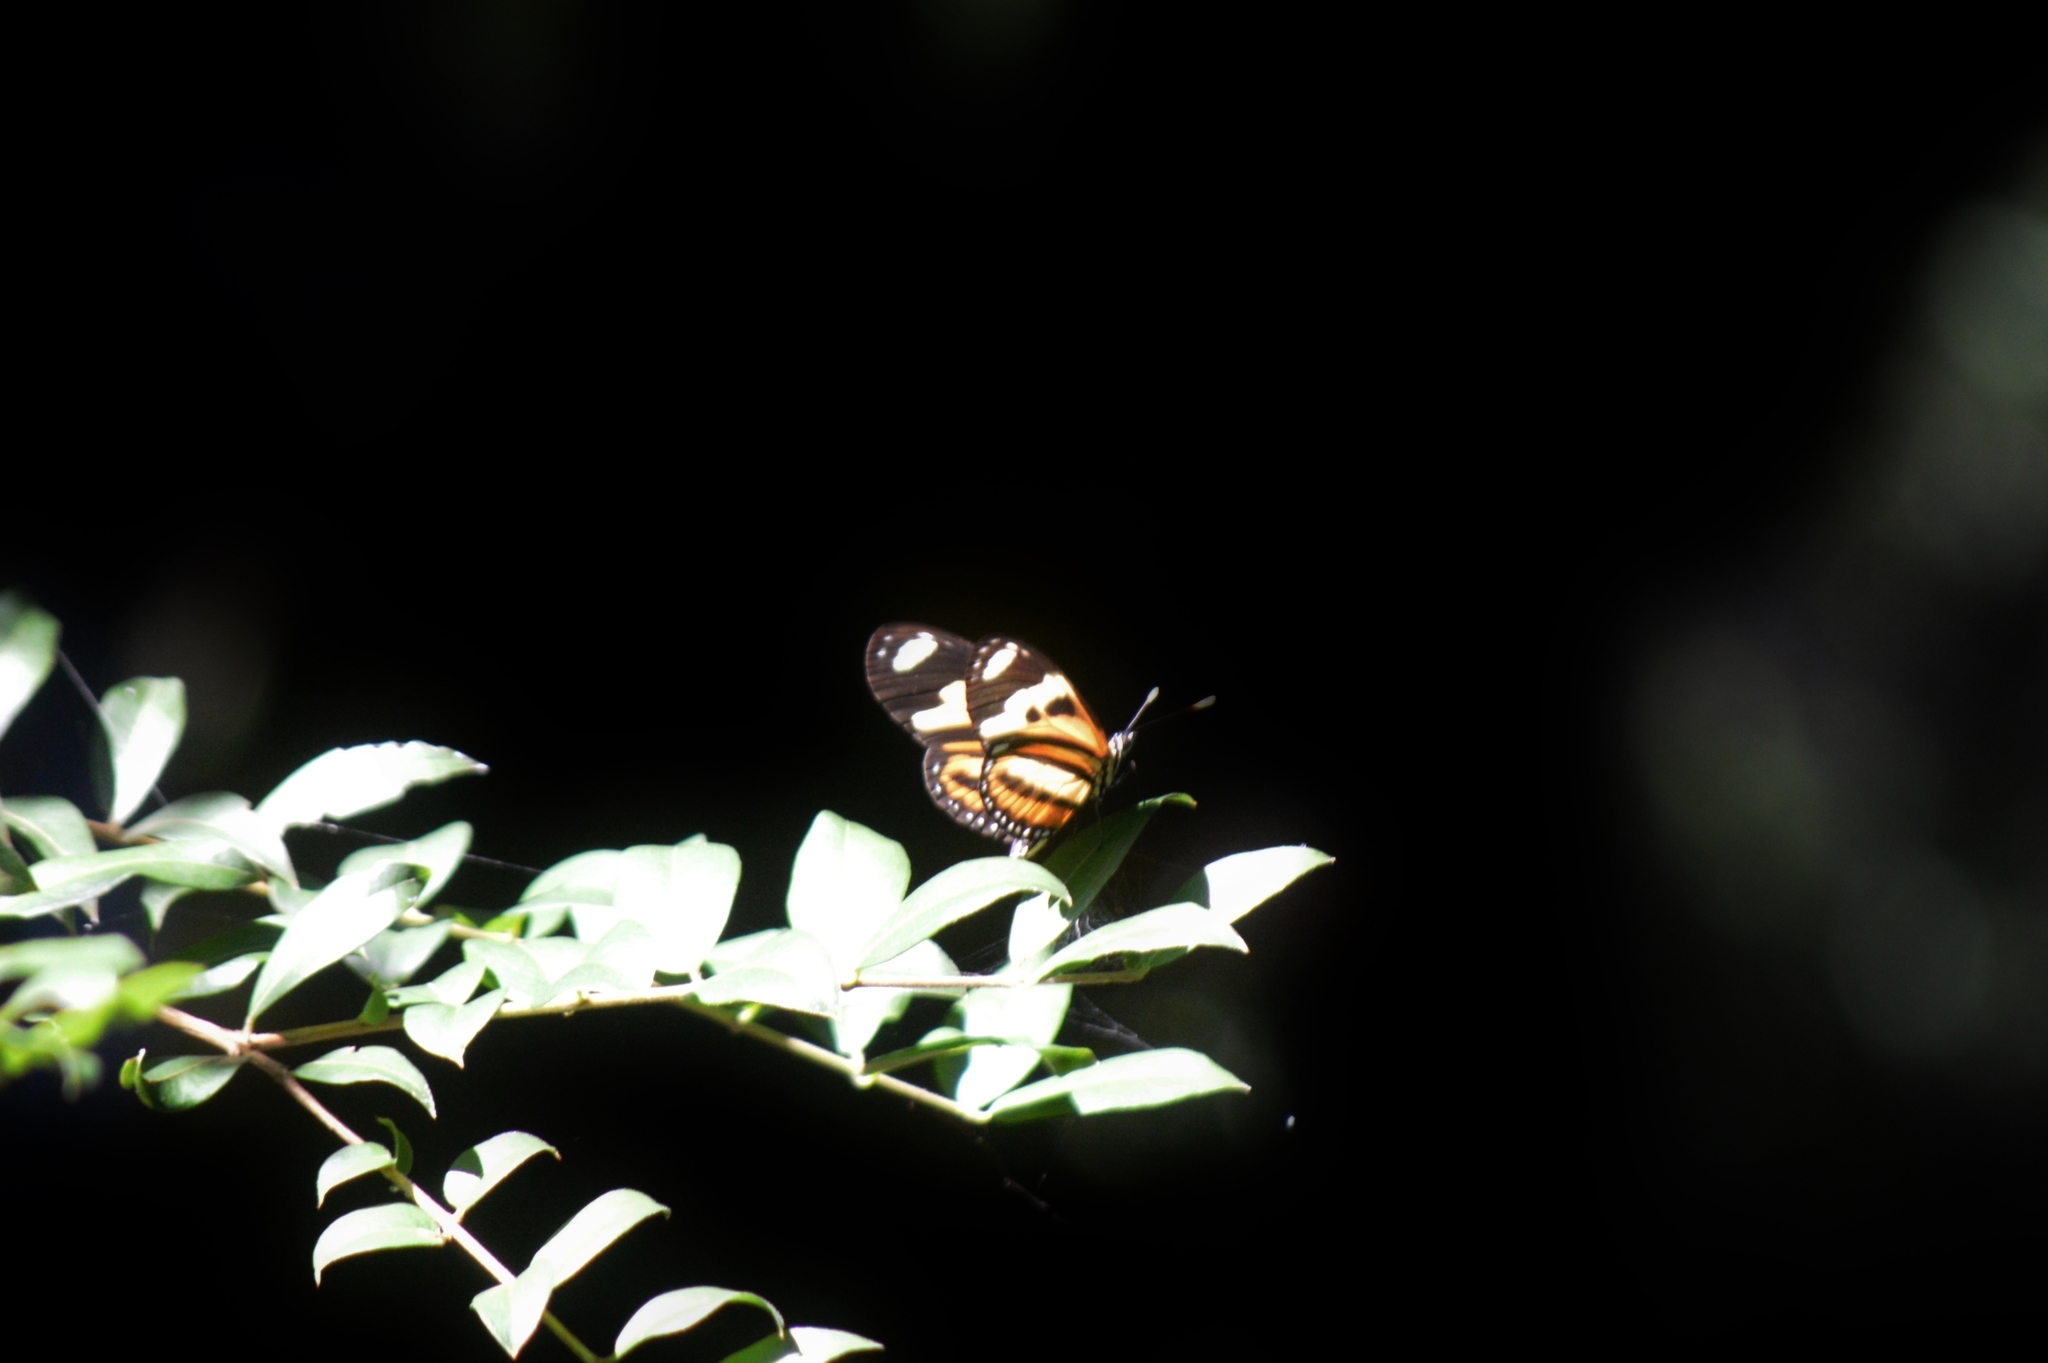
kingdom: Animalia
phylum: Arthropoda
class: Insecta
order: Lepidoptera
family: Nymphalidae
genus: Eueides
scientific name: Eueides isabella
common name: Isabella's longwing
